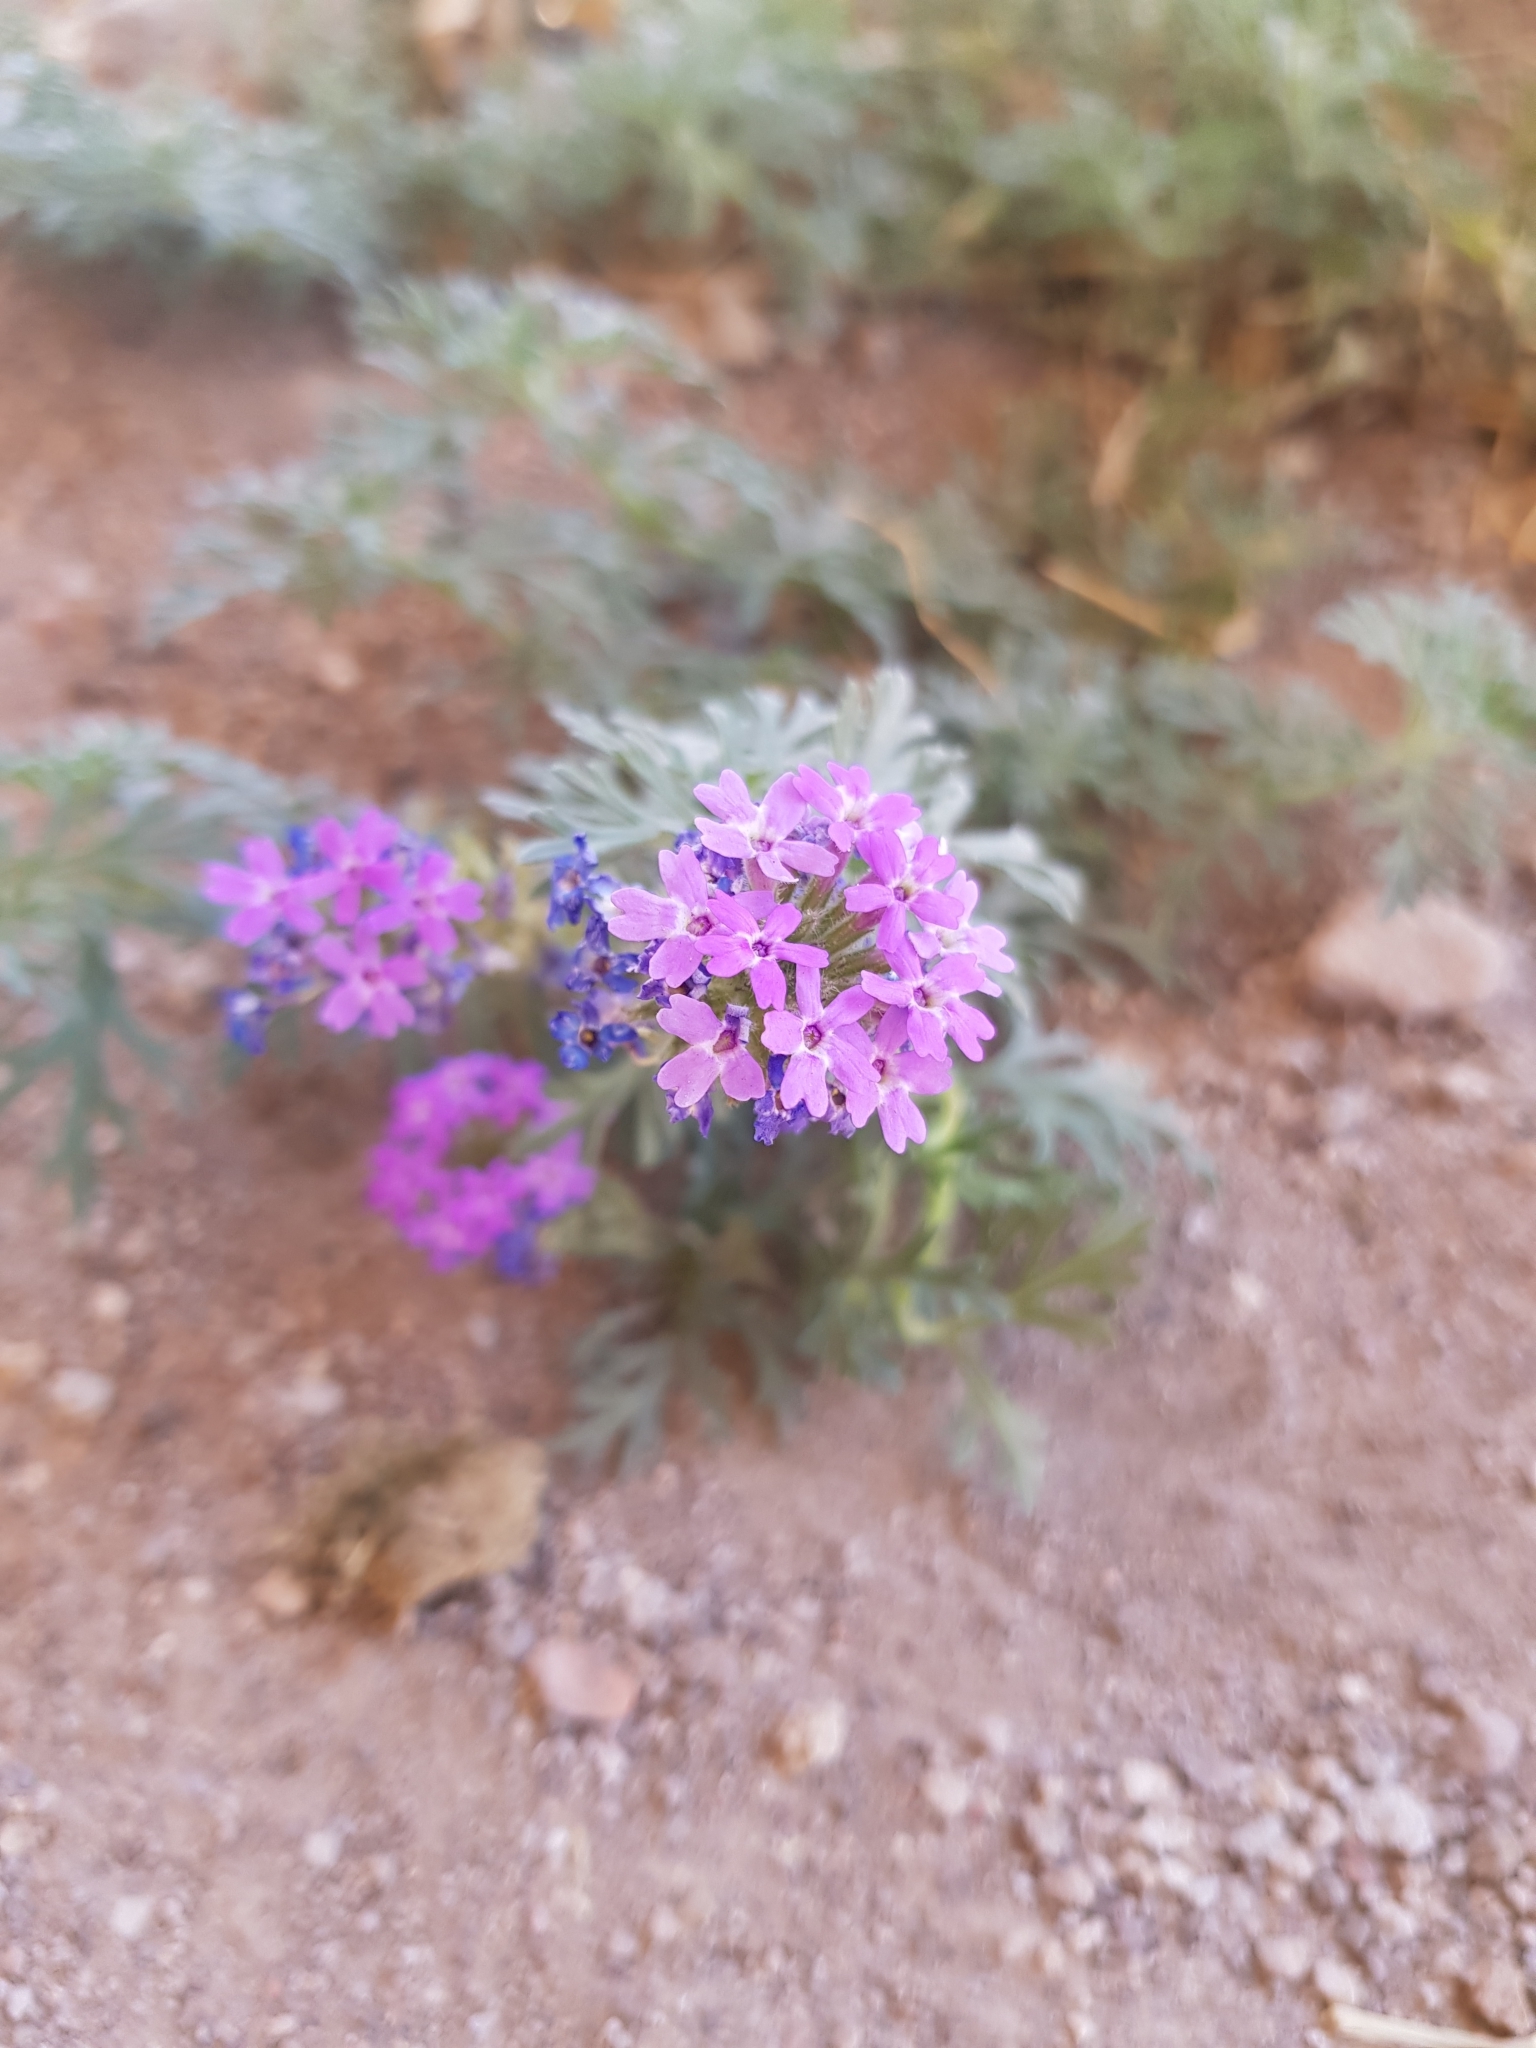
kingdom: Plantae
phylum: Tracheophyta
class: Magnoliopsida
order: Lamiales
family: Verbenaceae
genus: Verbena
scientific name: Verbena bipinnatifida
